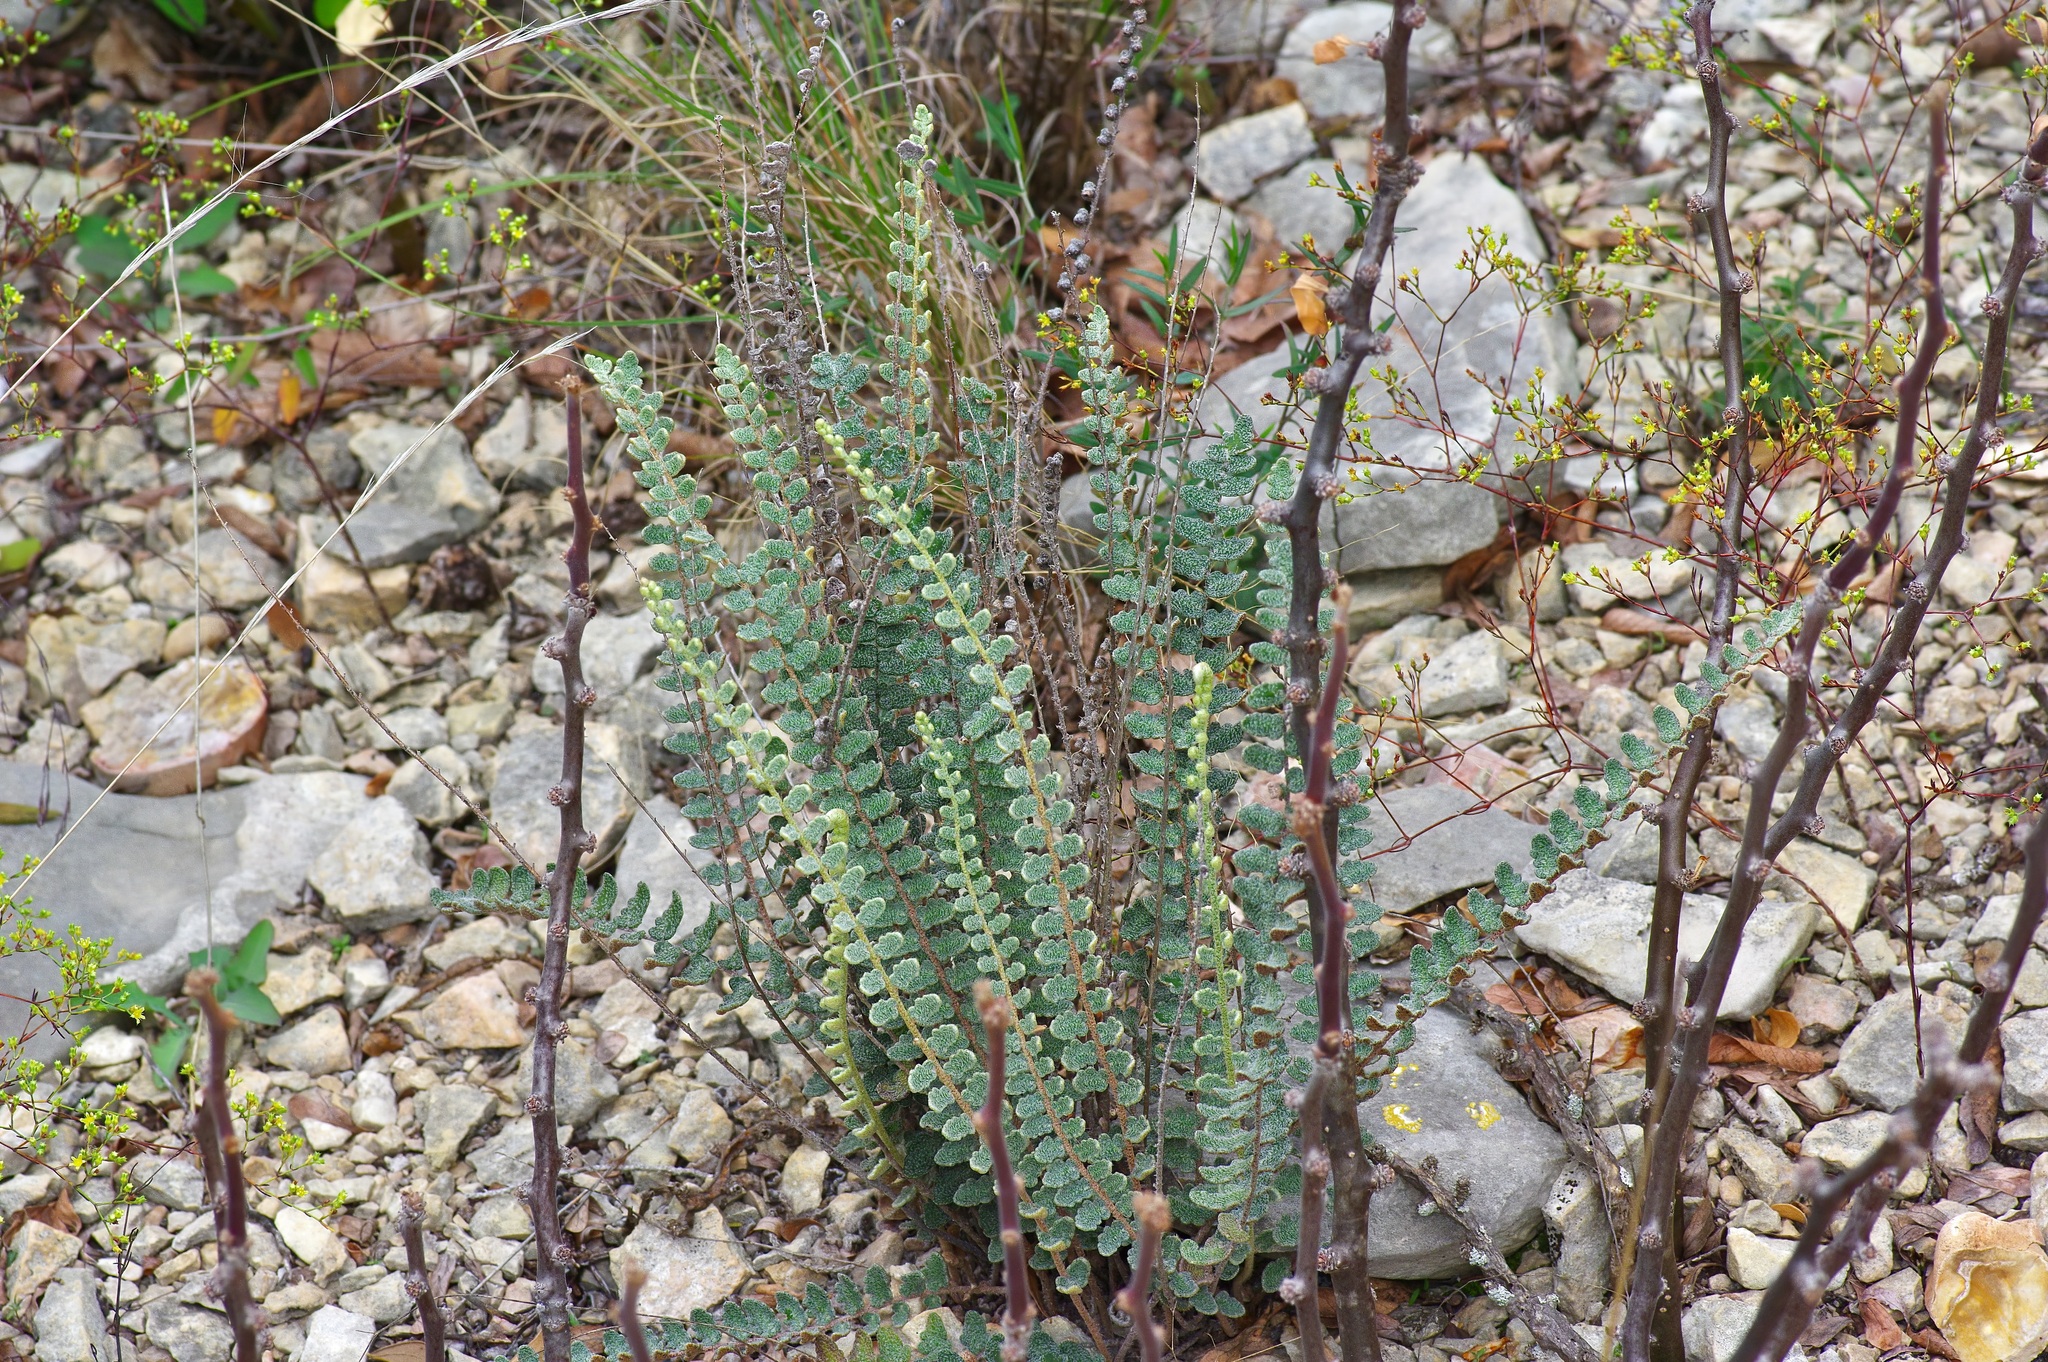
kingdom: Plantae
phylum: Tracheophyta
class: Polypodiopsida
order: Polypodiales
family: Pteridaceae
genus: Astrolepis
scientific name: Astrolepis integerrima
